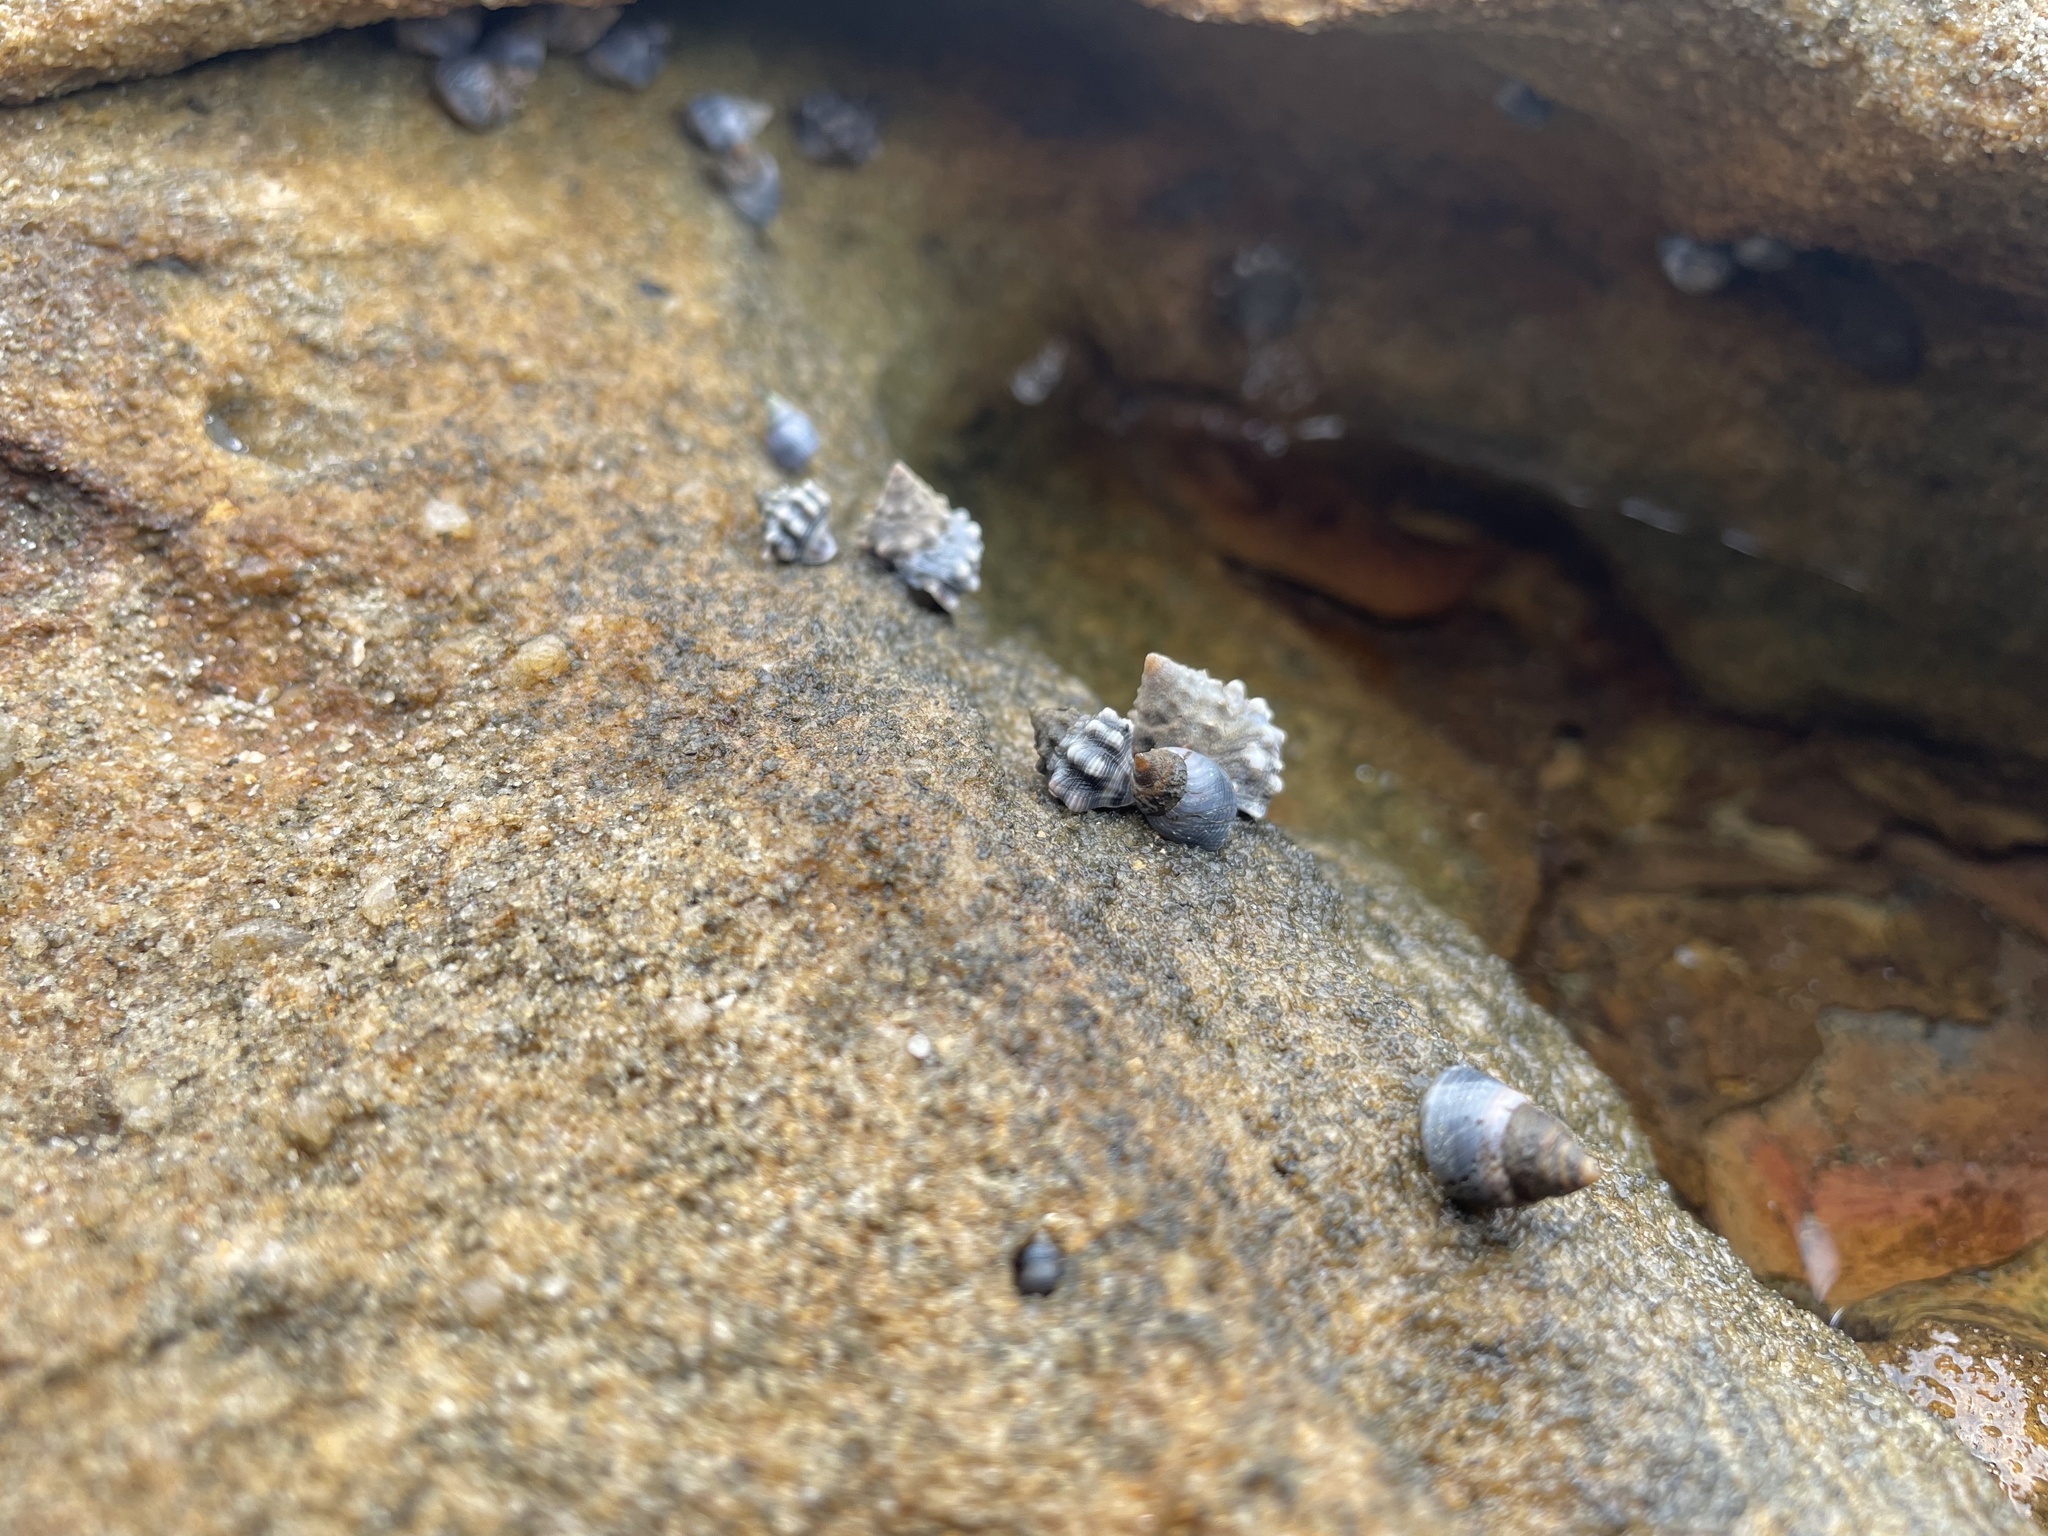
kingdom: Animalia
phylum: Mollusca
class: Gastropoda
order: Littorinimorpha
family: Littorinidae
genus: Nodilittorina
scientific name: Nodilittorina pyramidalis
